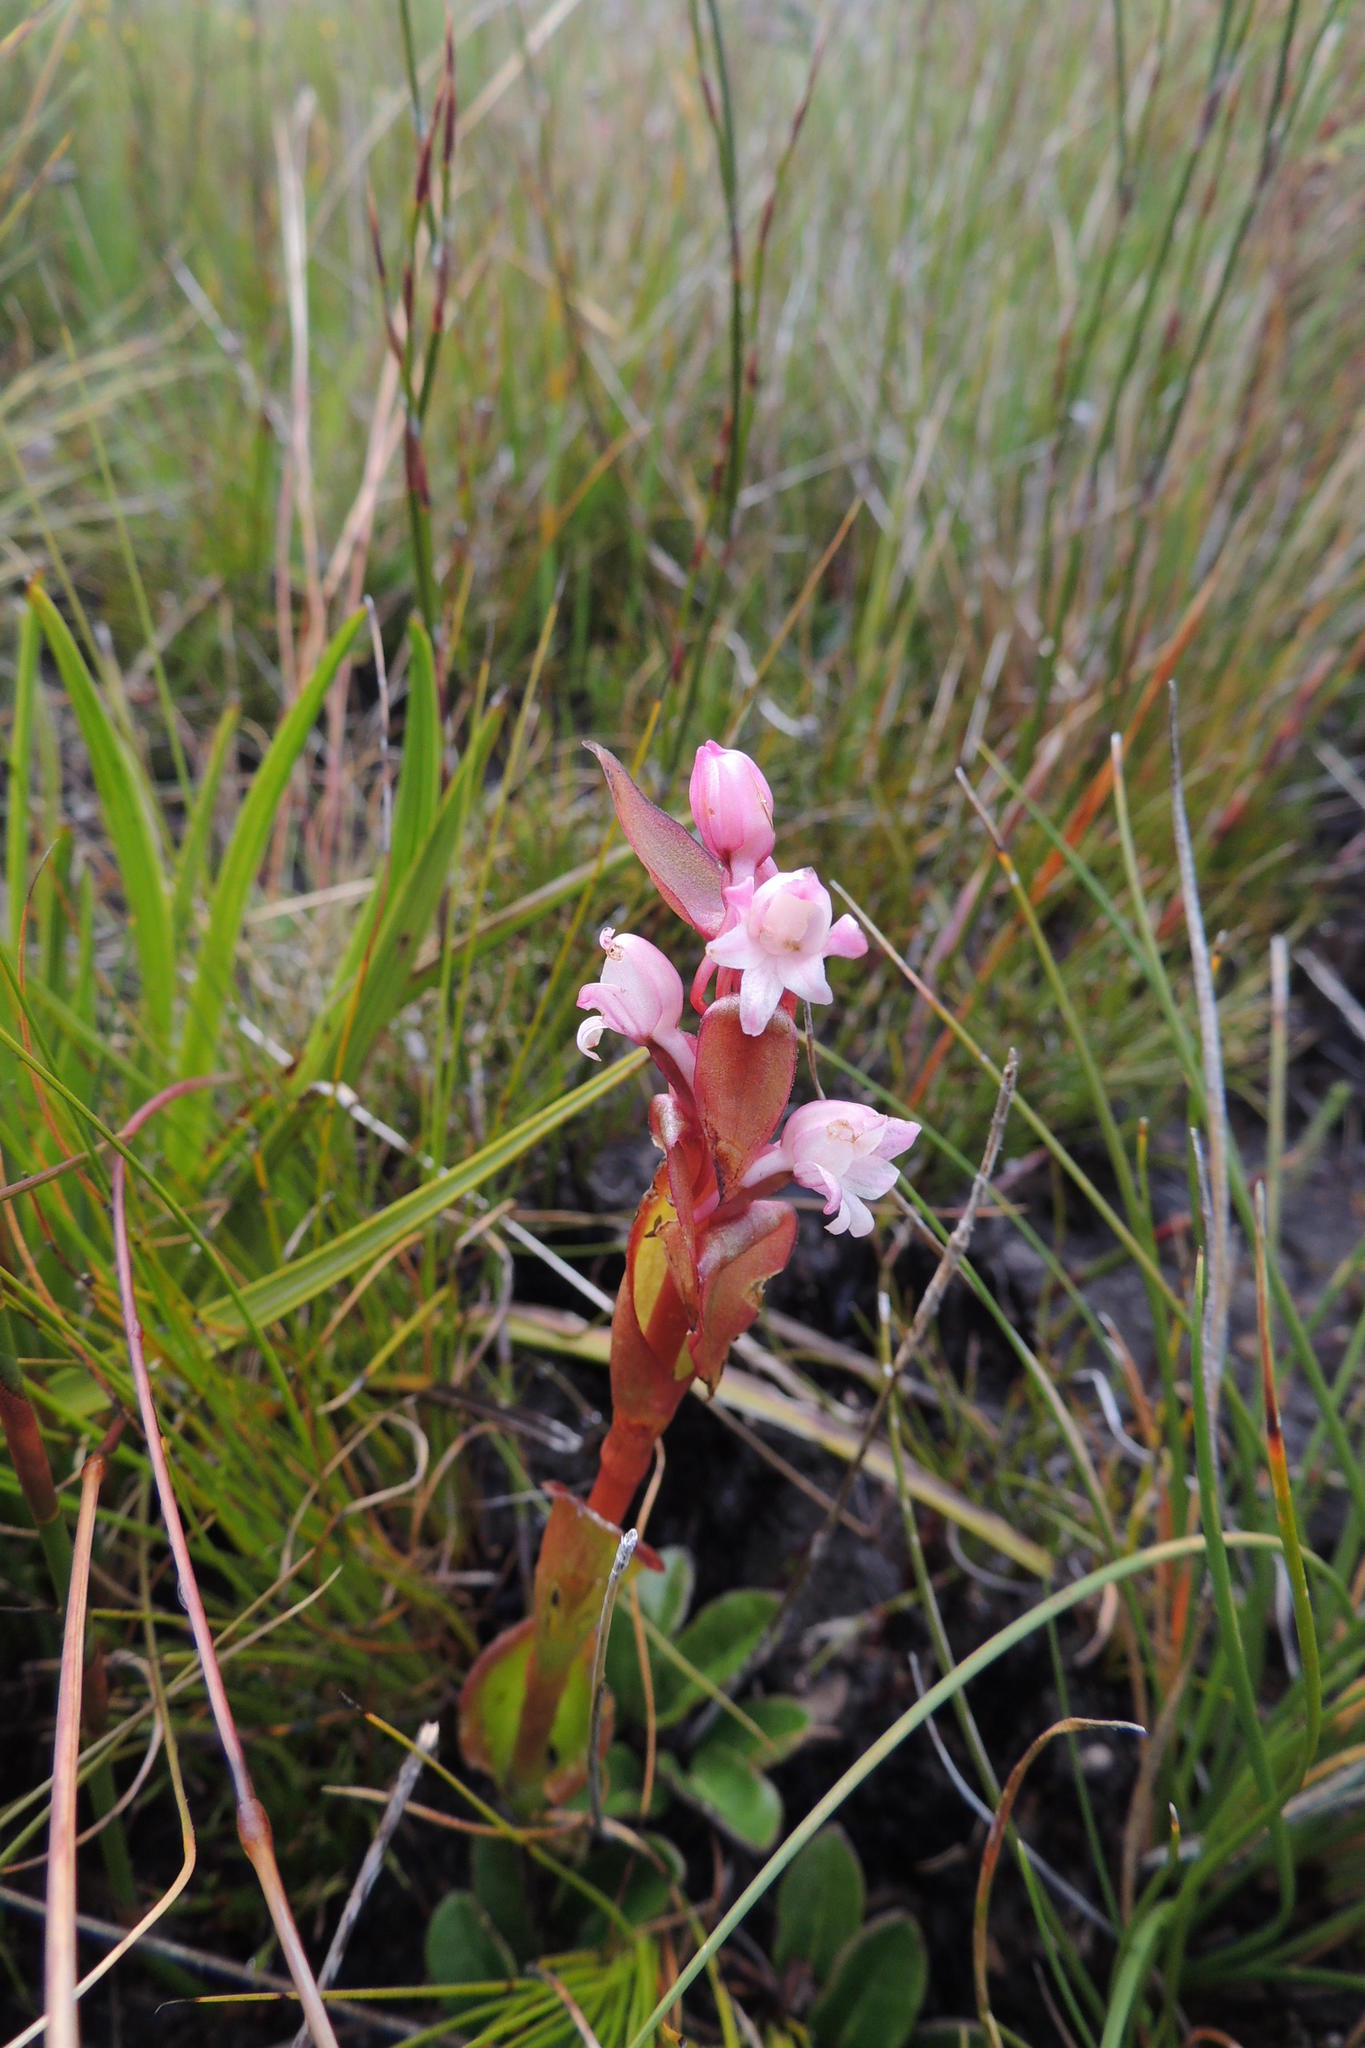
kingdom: Plantae
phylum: Tracheophyta
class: Liliopsida
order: Asparagales
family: Orchidaceae
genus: Satyrium
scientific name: Satyrium acuminatum
